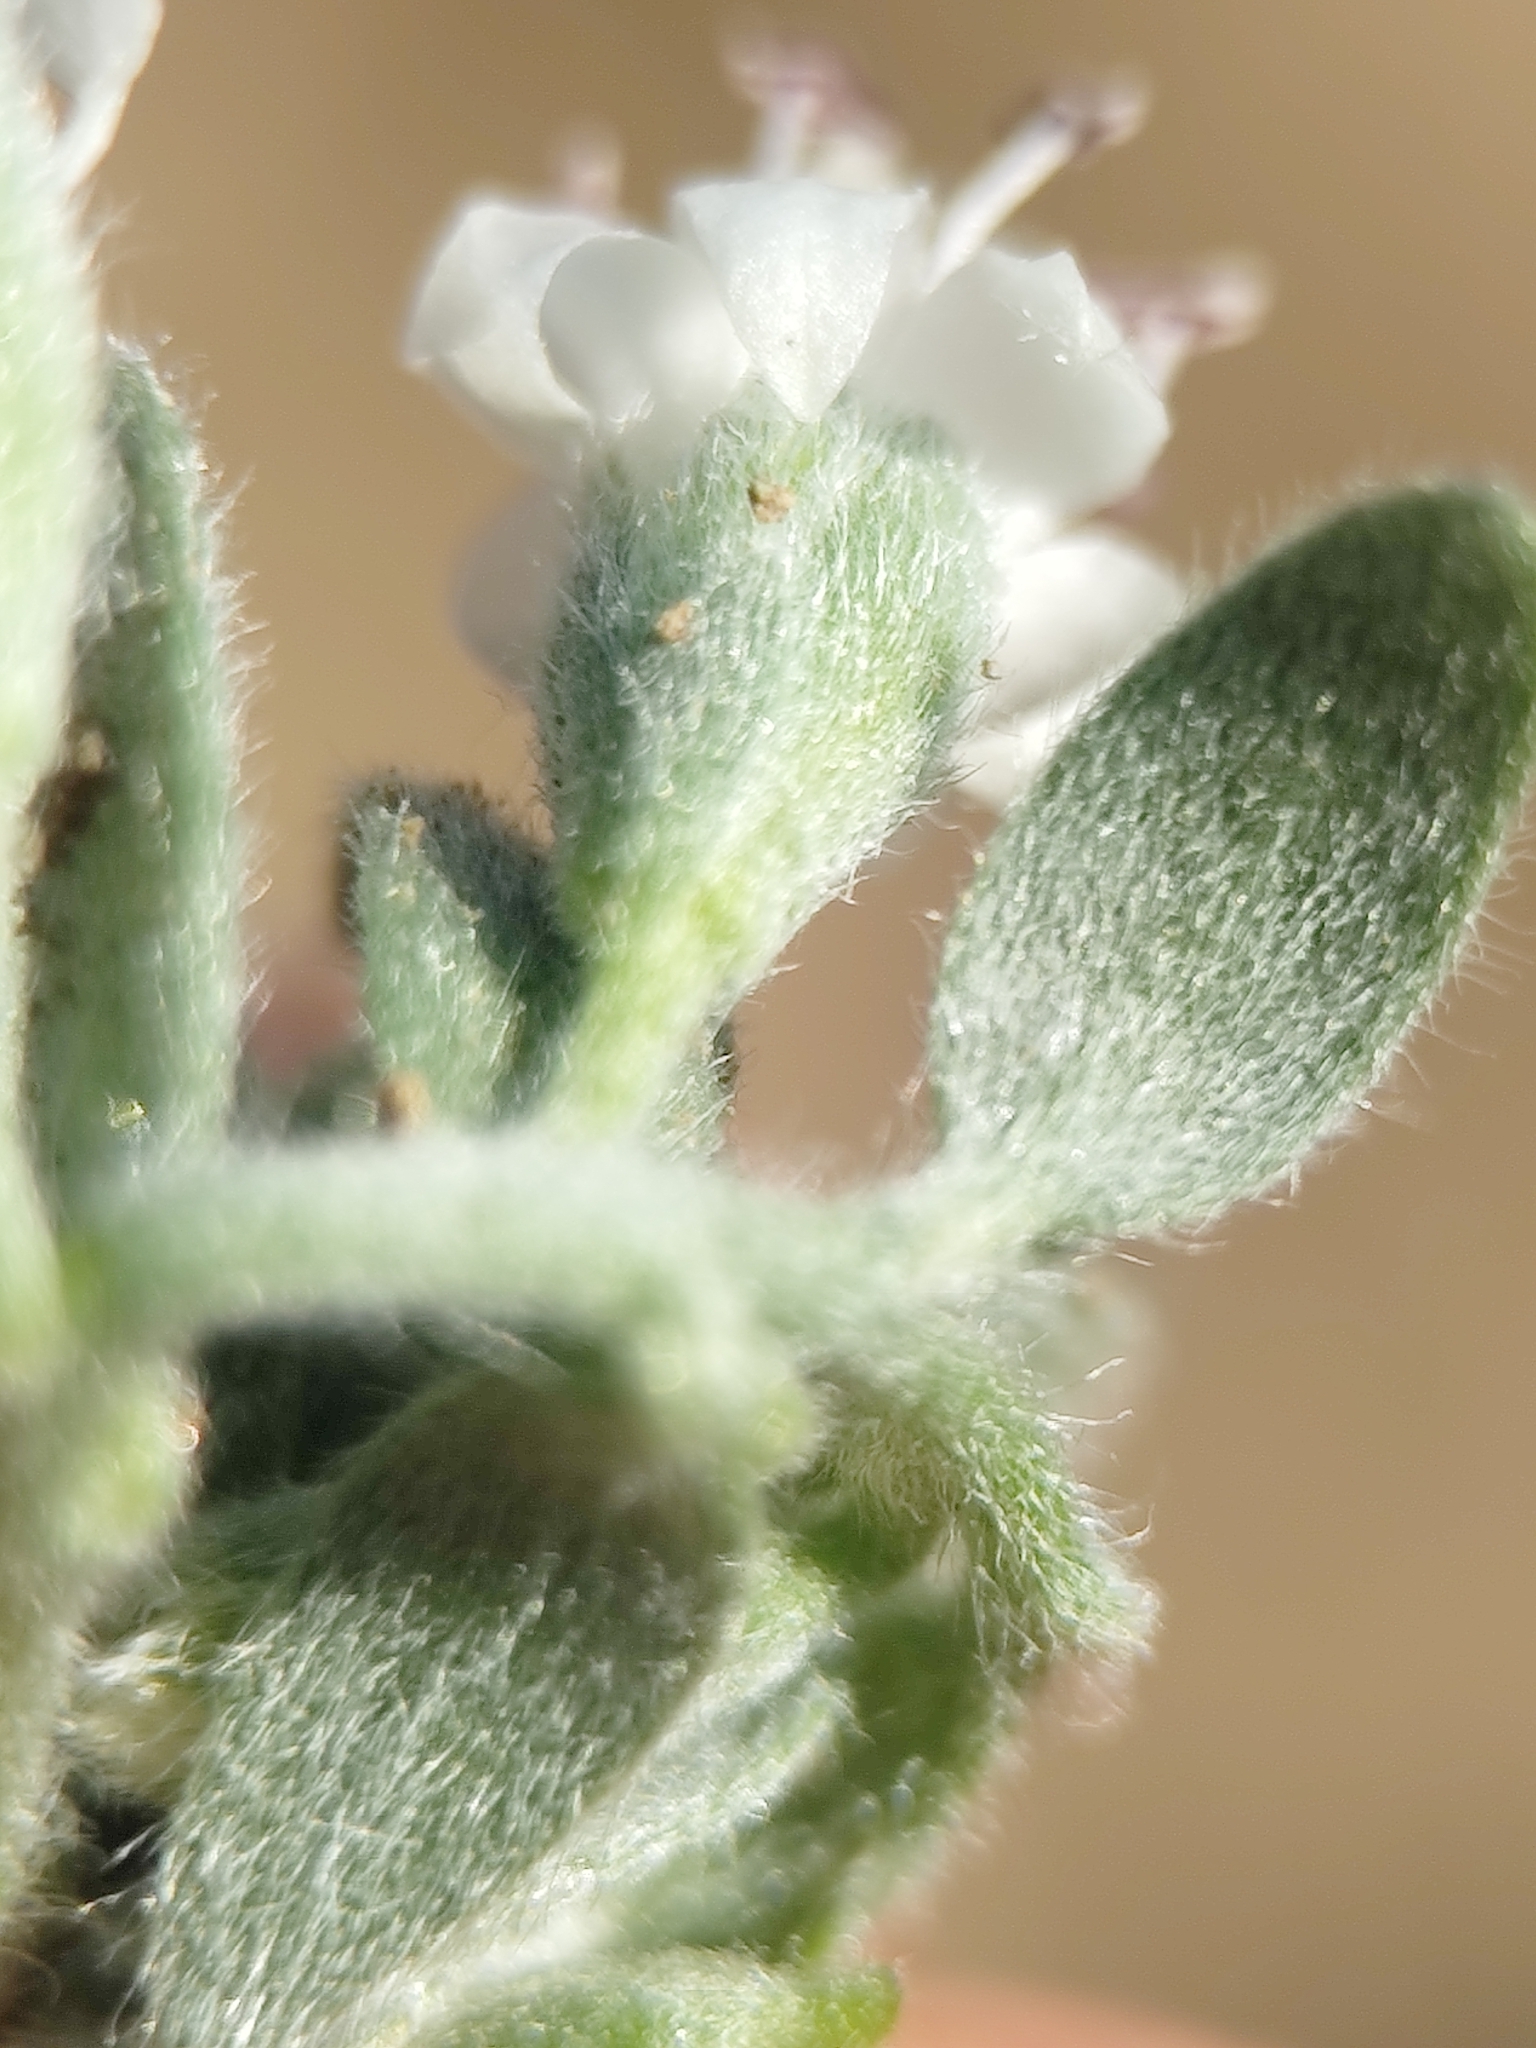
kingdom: Plantae
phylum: Tracheophyta
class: Magnoliopsida
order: Solanales
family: Convolvulaceae
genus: Cressa
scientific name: Cressa truxillensis
